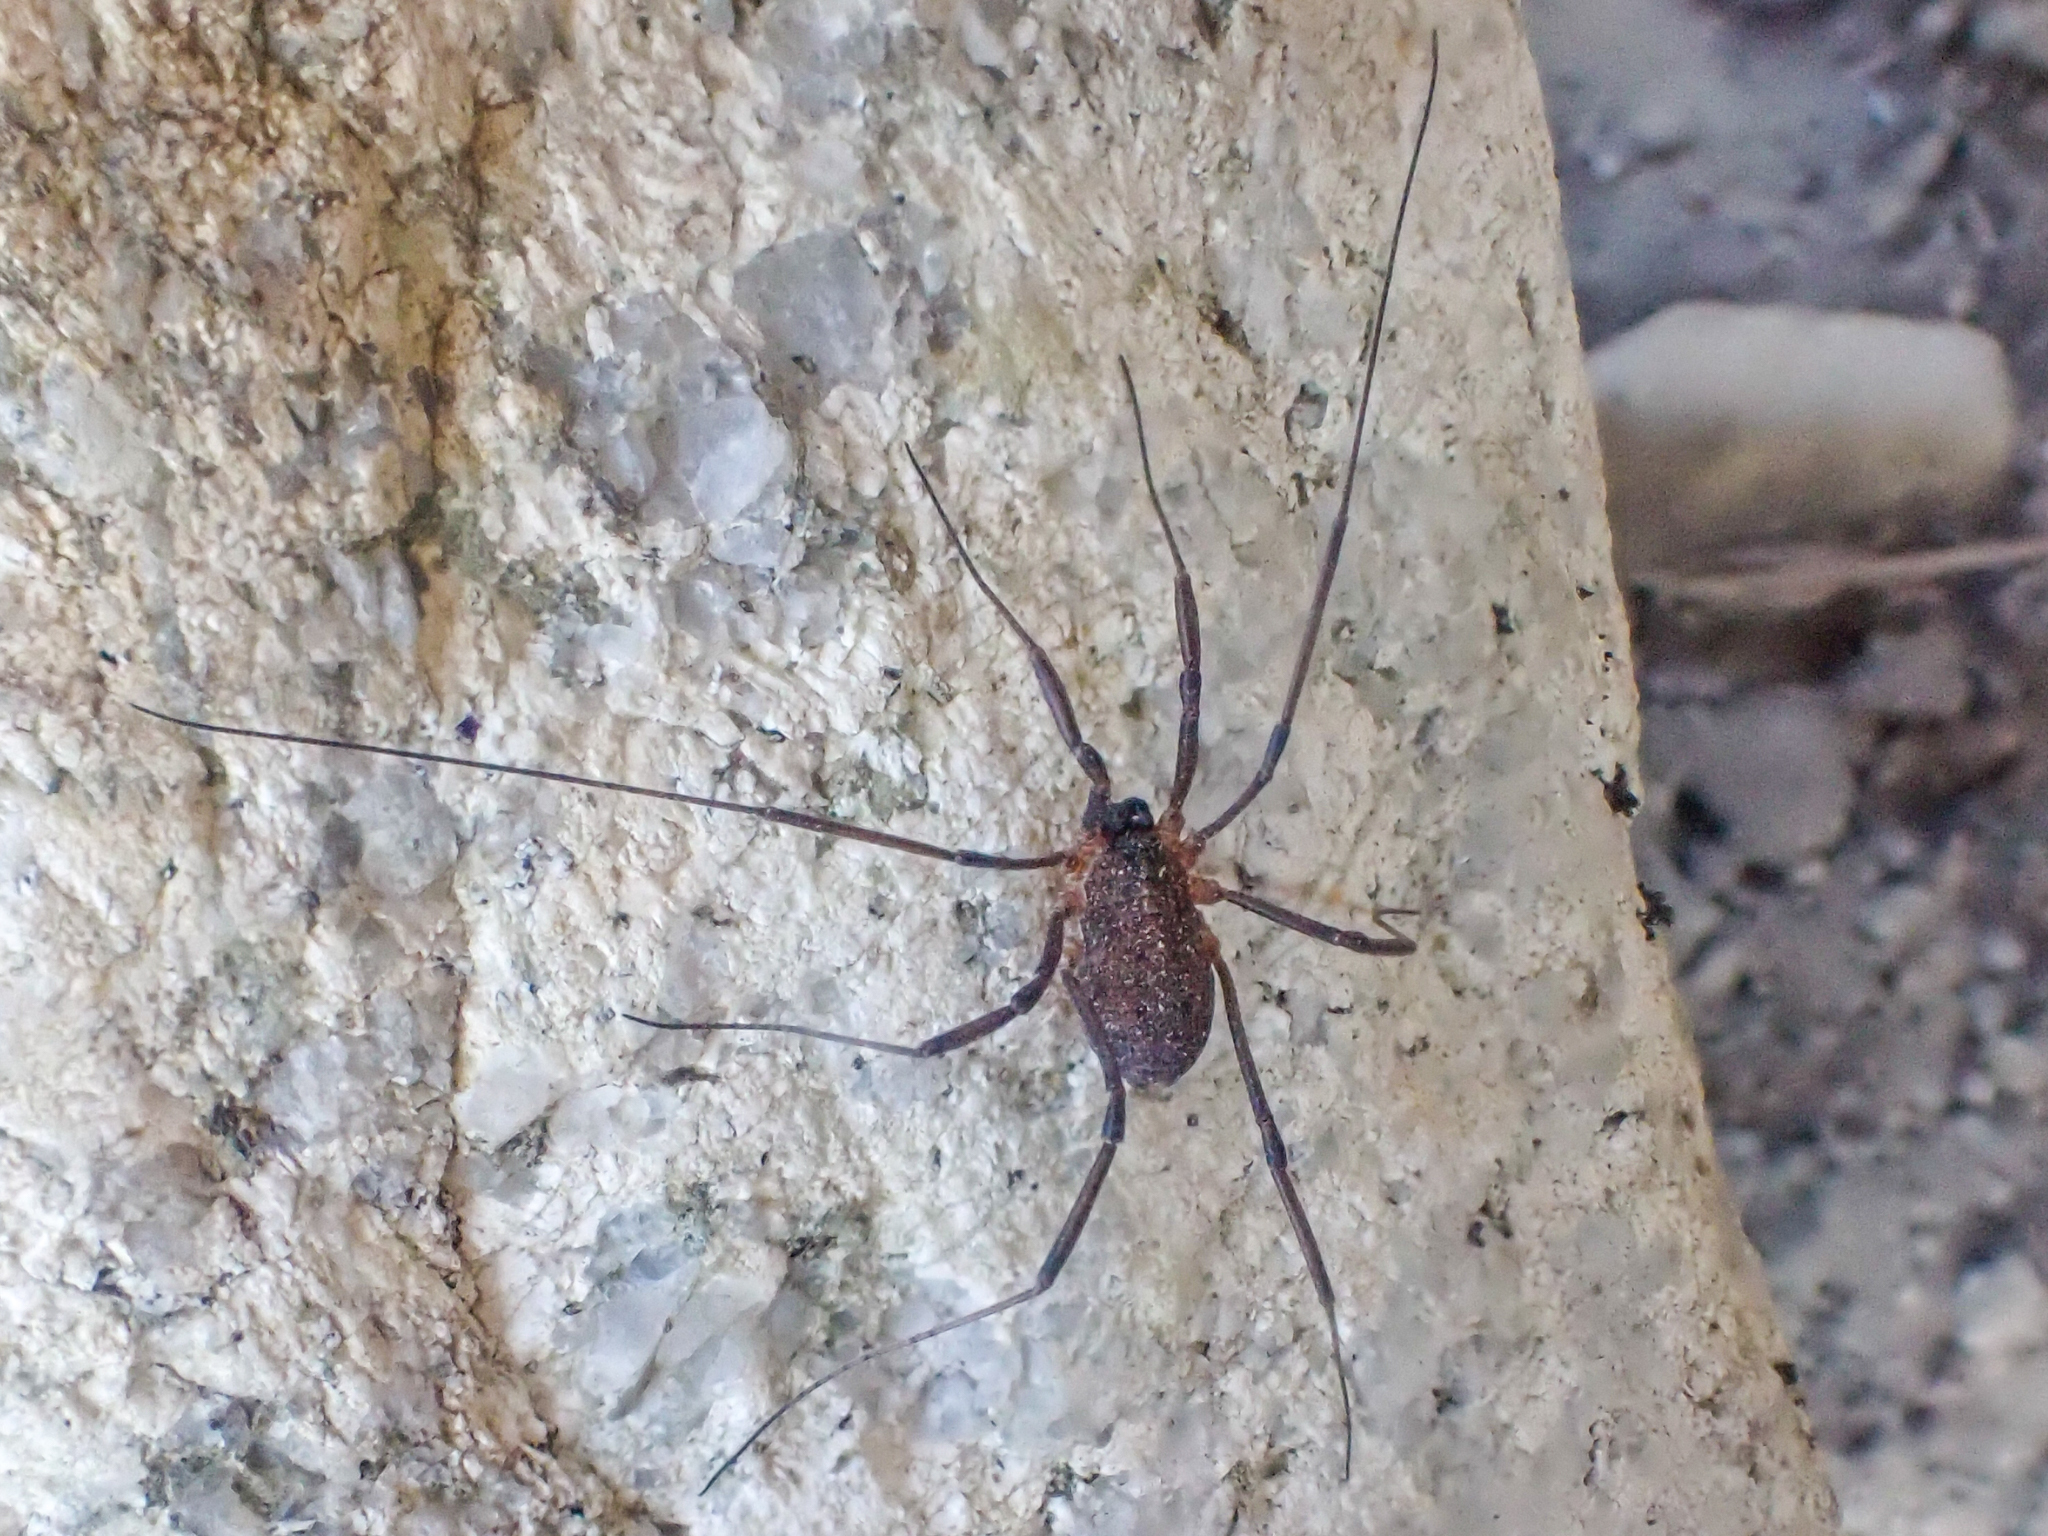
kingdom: Animalia
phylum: Arthropoda
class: Arachnida
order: Opiliones
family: Sclerosomatidae
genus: Togwoteeus
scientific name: Togwoteeus biceps
